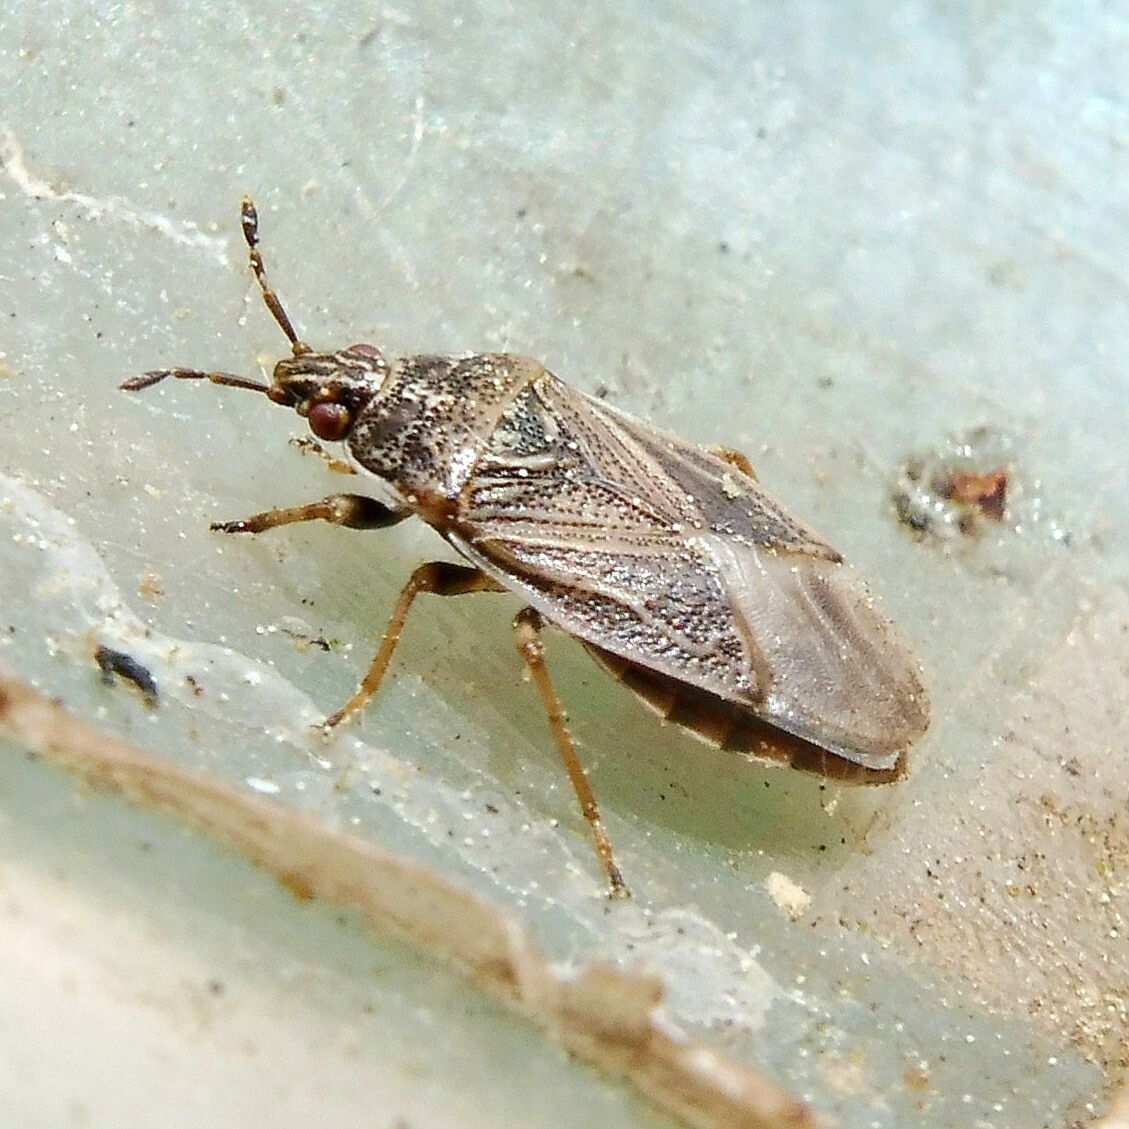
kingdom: Animalia
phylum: Arthropoda
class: Insecta
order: Hemiptera
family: Artheneidae
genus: Chilacis
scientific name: Chilacis typhae
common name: Cattail bug
